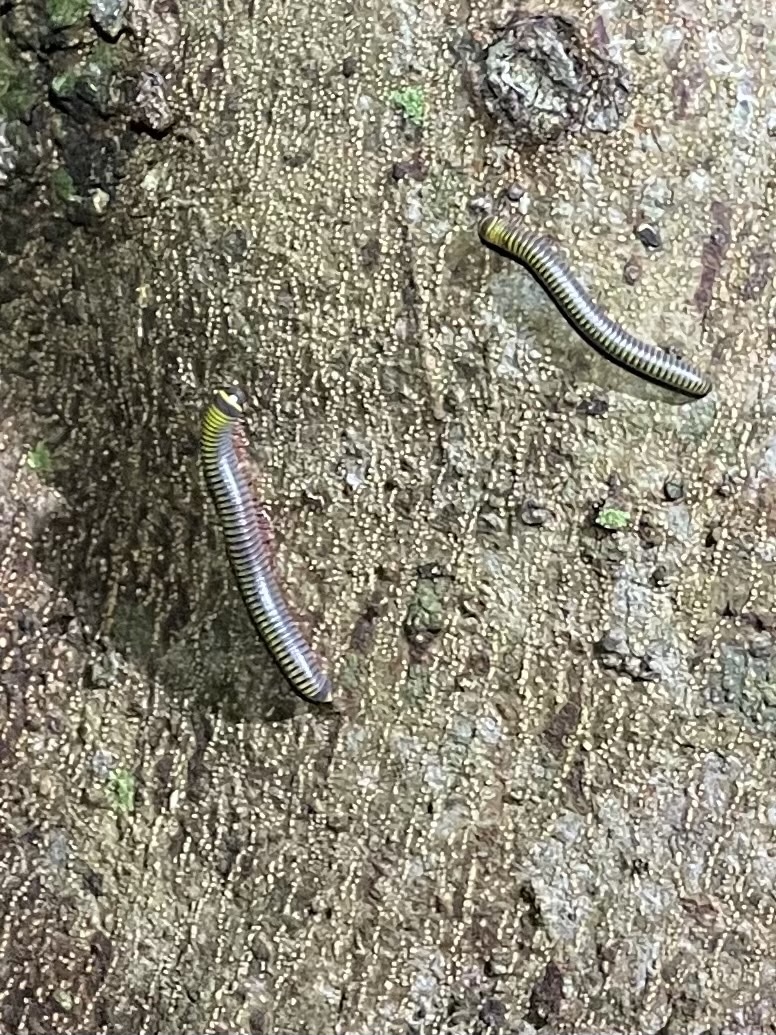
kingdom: Animalia
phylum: Arthropoda
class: Diplopoda
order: Spirobolida
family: Rhinocricidae
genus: Anadenobolus
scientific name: Anadenobolus monilicornis
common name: Caribbean millipede
